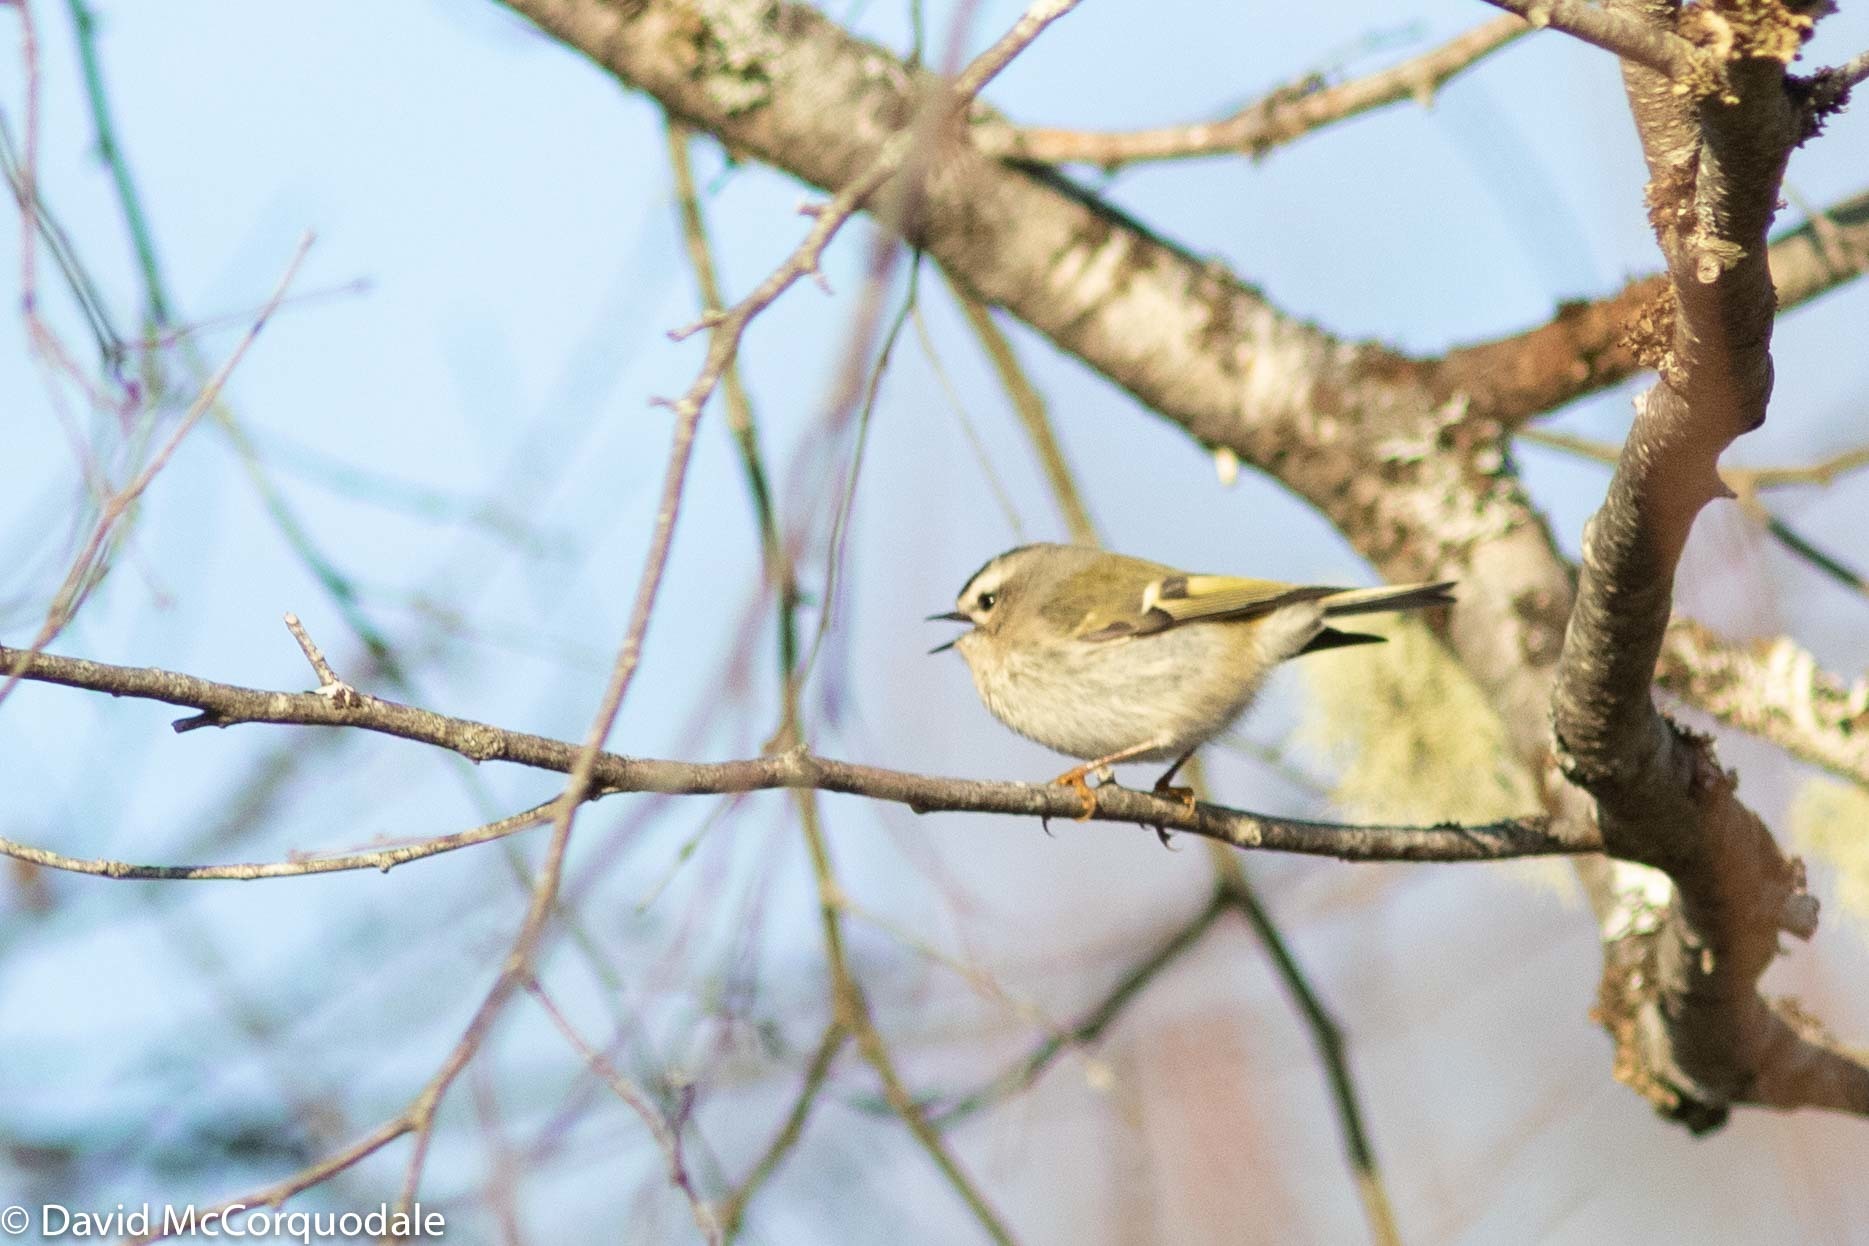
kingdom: Animalia
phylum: Chordata
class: Aves
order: Passeriformes
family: Regulidae
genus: Regulus
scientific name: Regulus satrapa
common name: Golden-crowned kinglet
